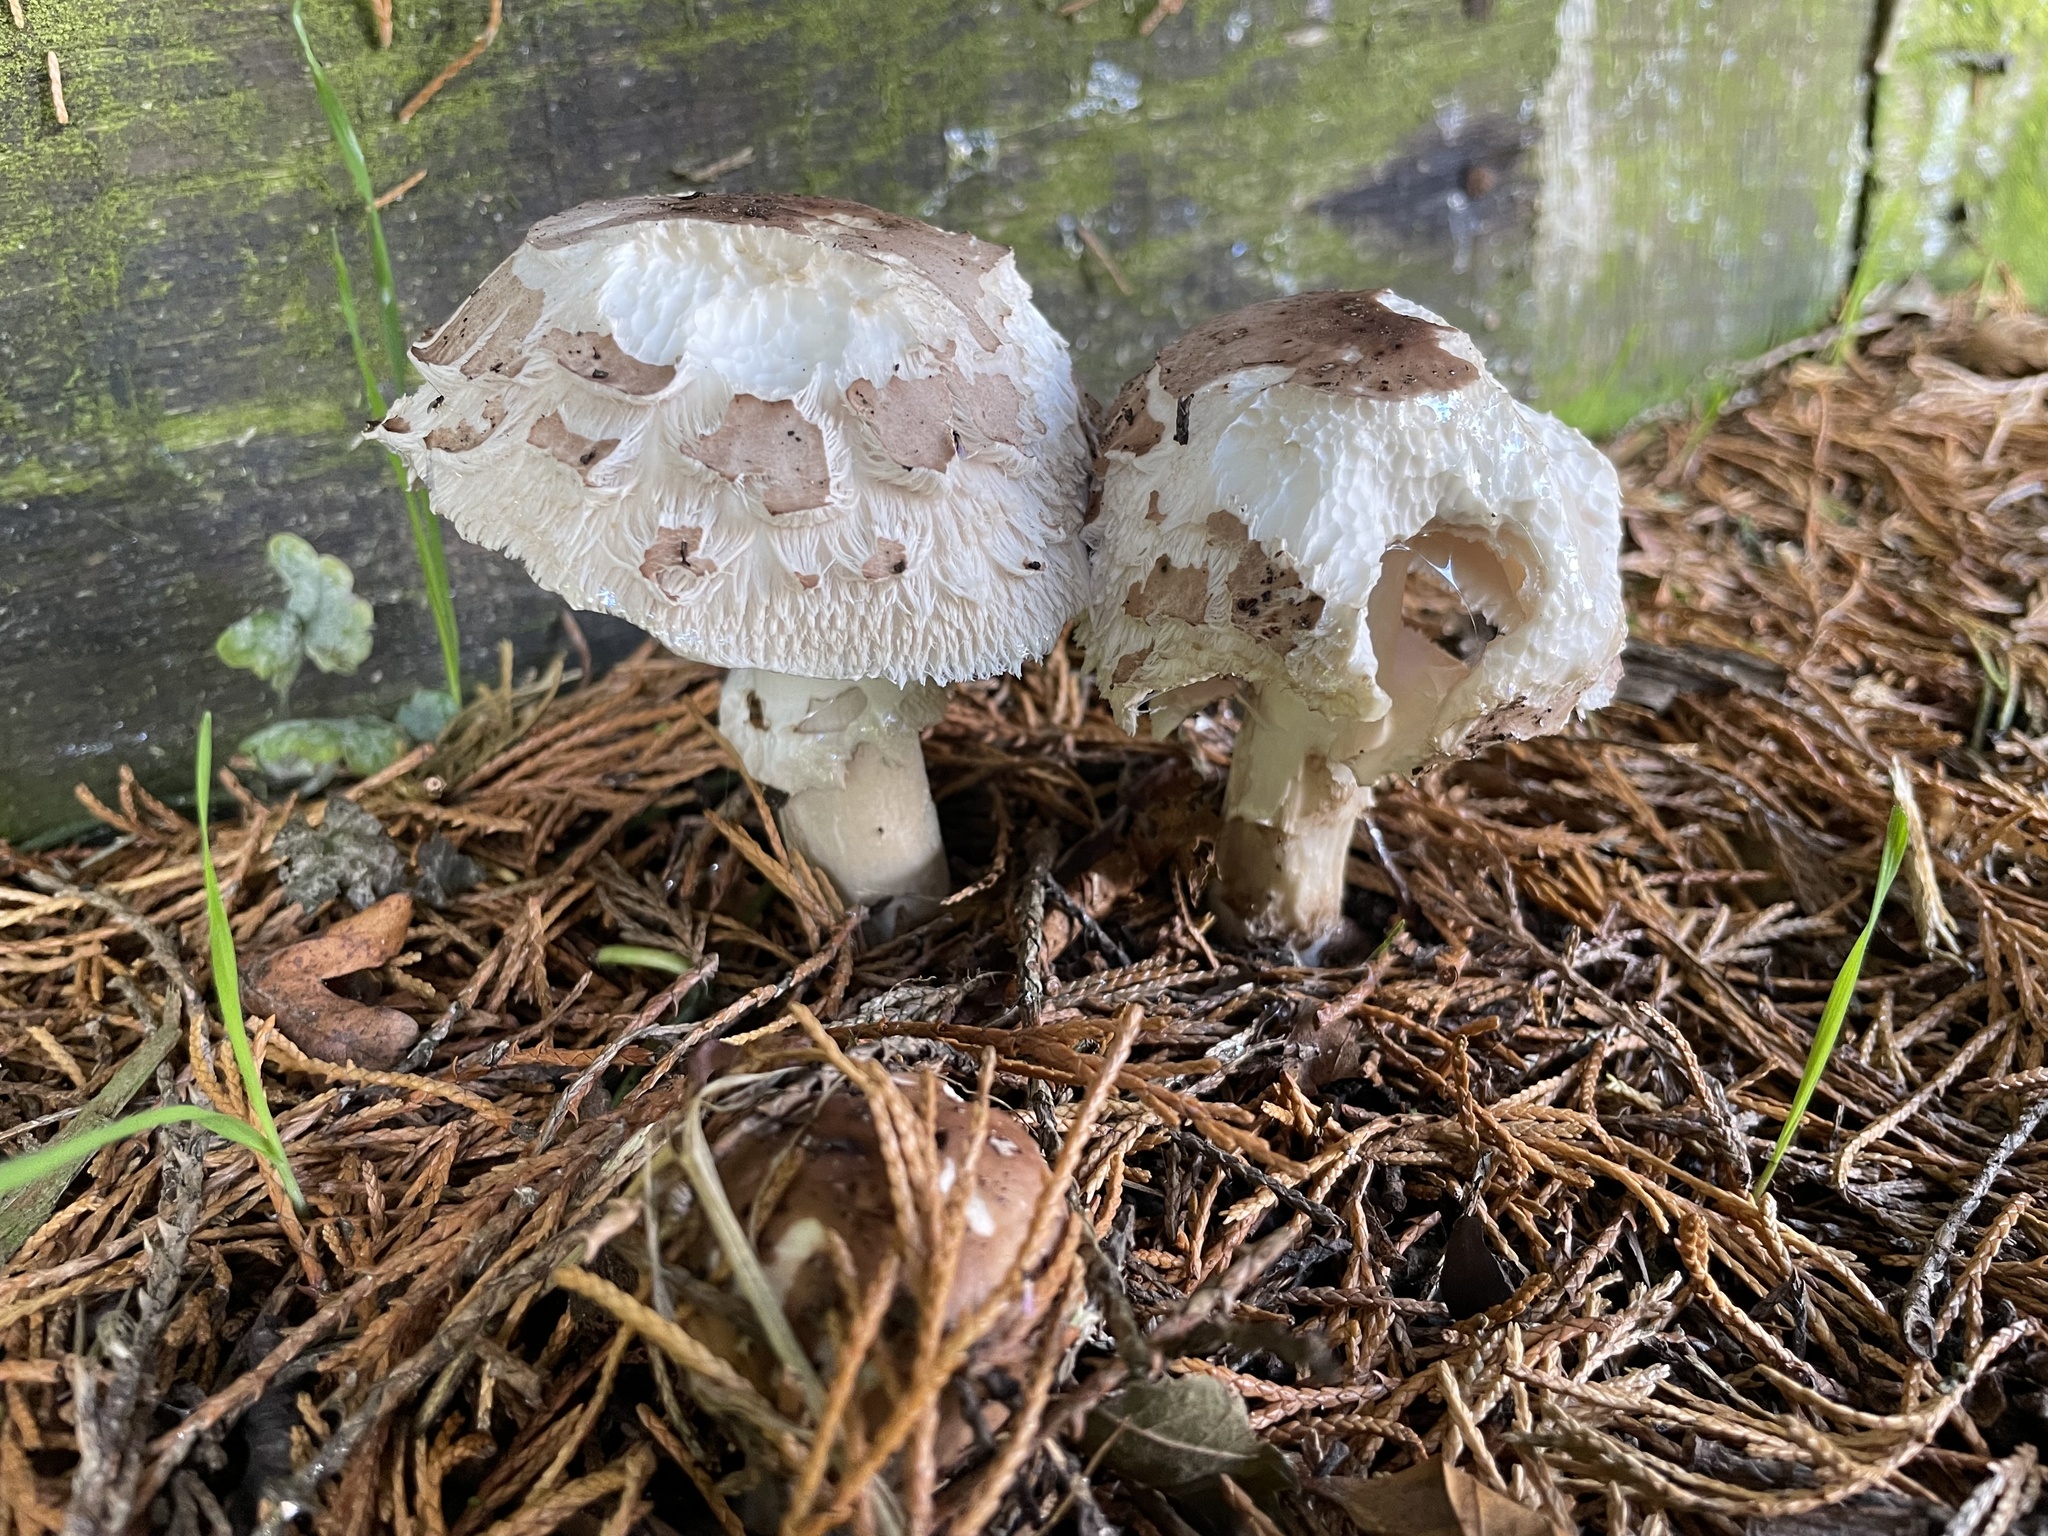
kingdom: Fungi
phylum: Basidiomycota
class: Agaricomycetes
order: Agaricales
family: Agaricaceae
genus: Chlorophyllum
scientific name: Chlorophyllum rhacodes
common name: Shaggy parasol
